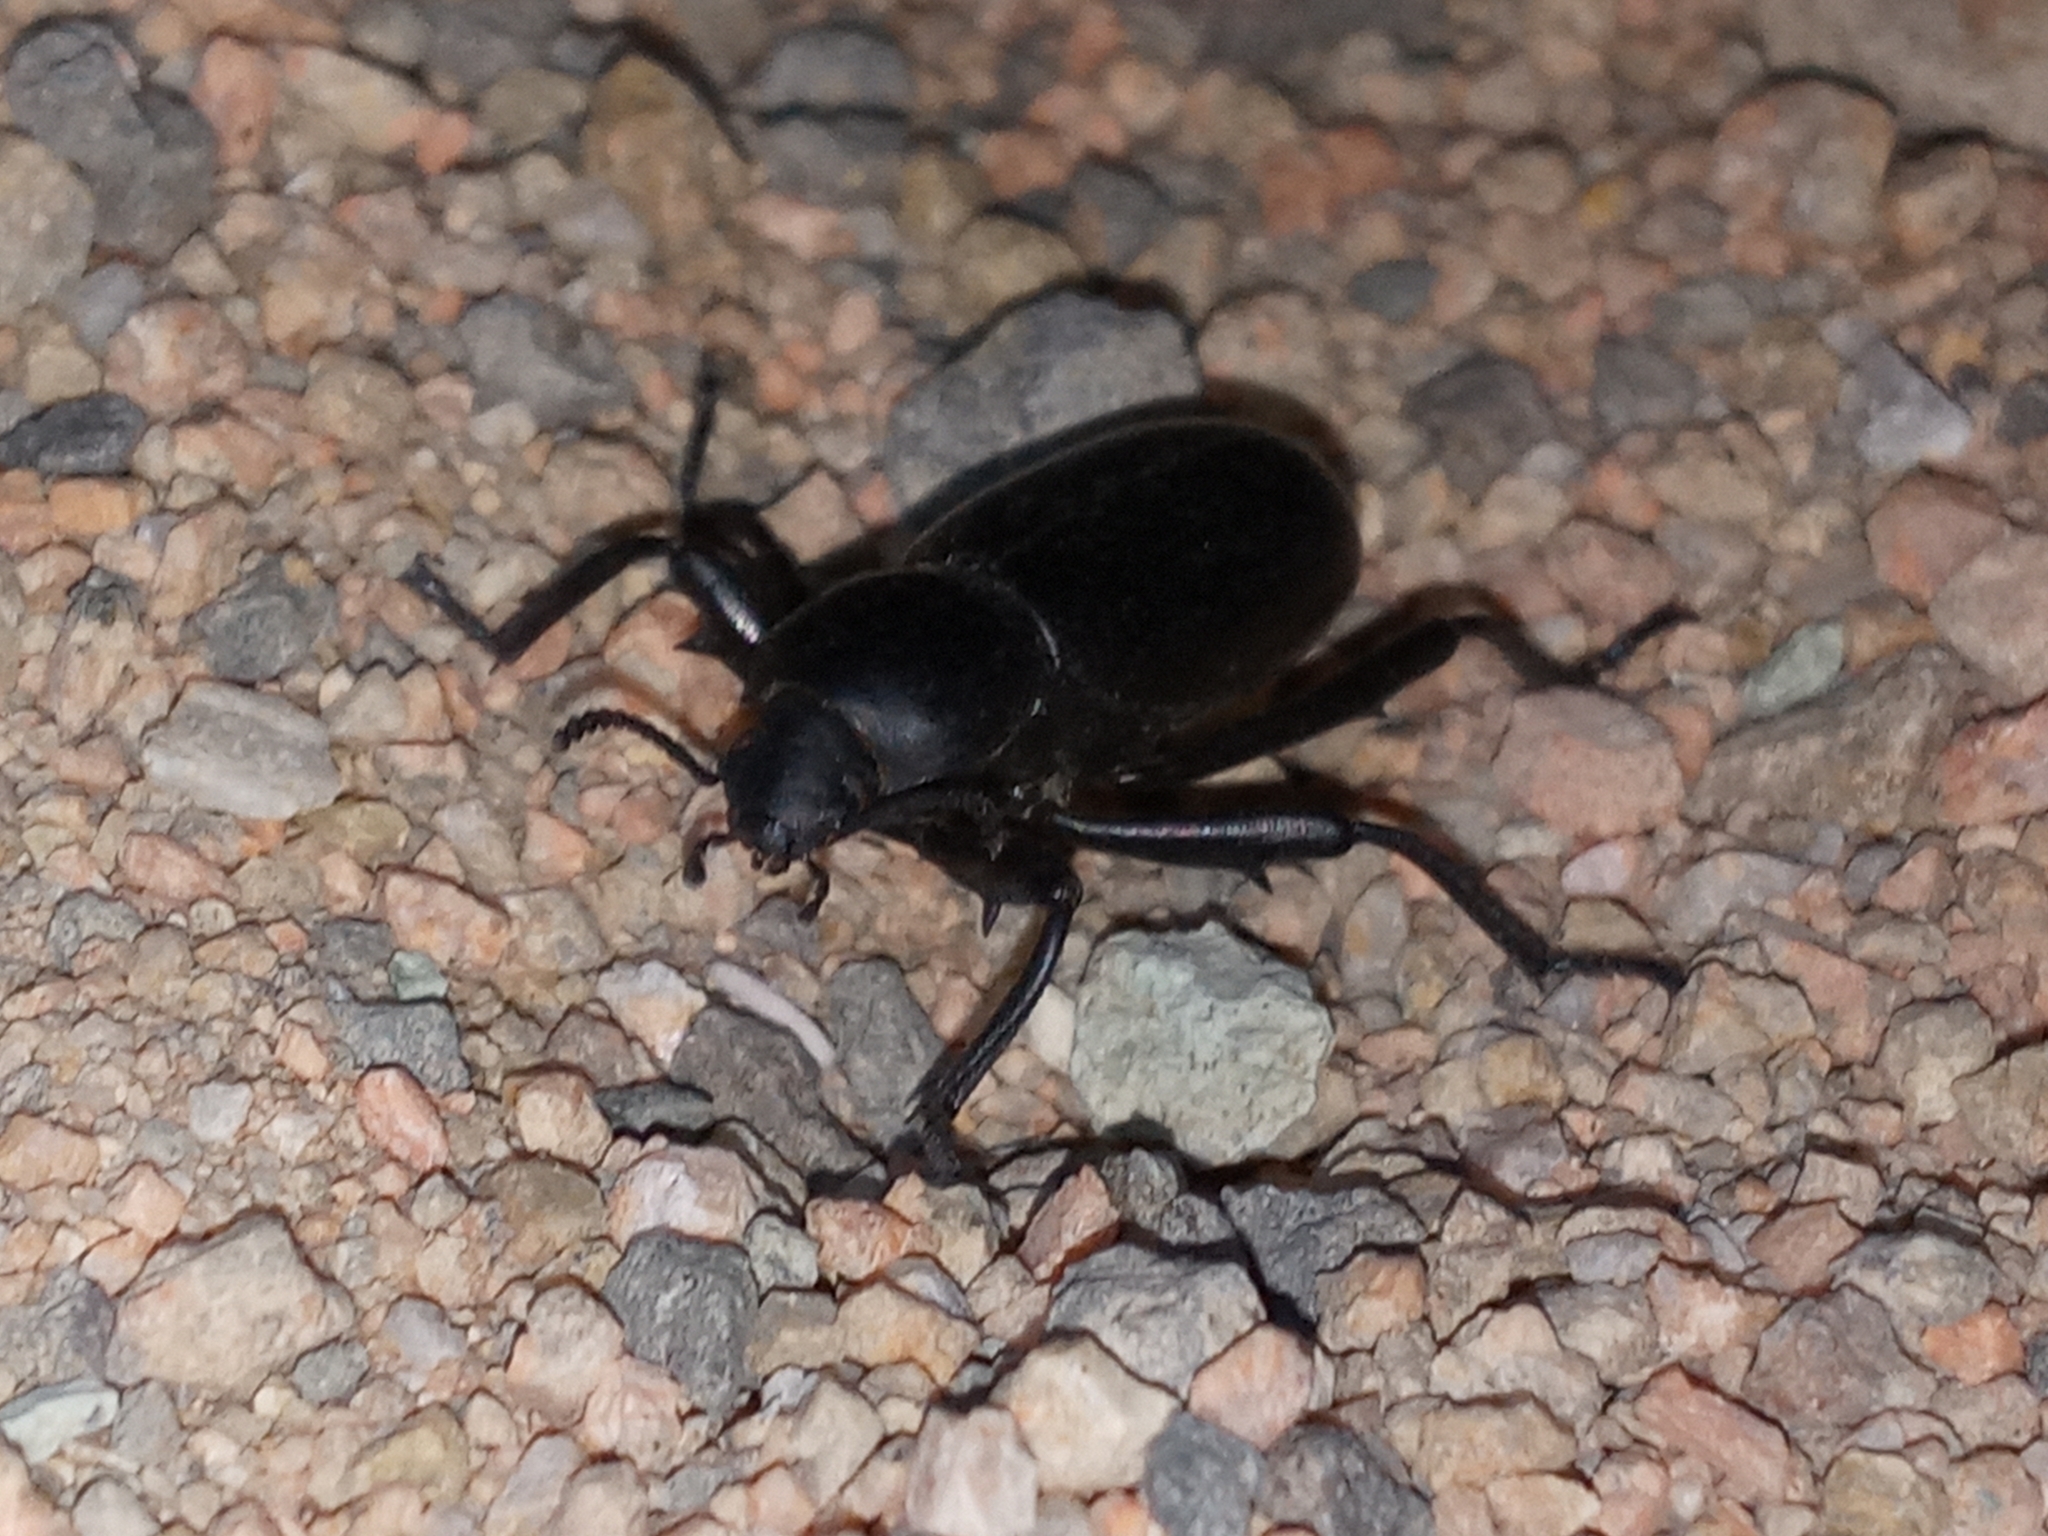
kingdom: Animalia
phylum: Arthropoda
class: Insecta
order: Coleoptera
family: Tenebrionidae
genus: Eleodes
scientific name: Eleodes armata
